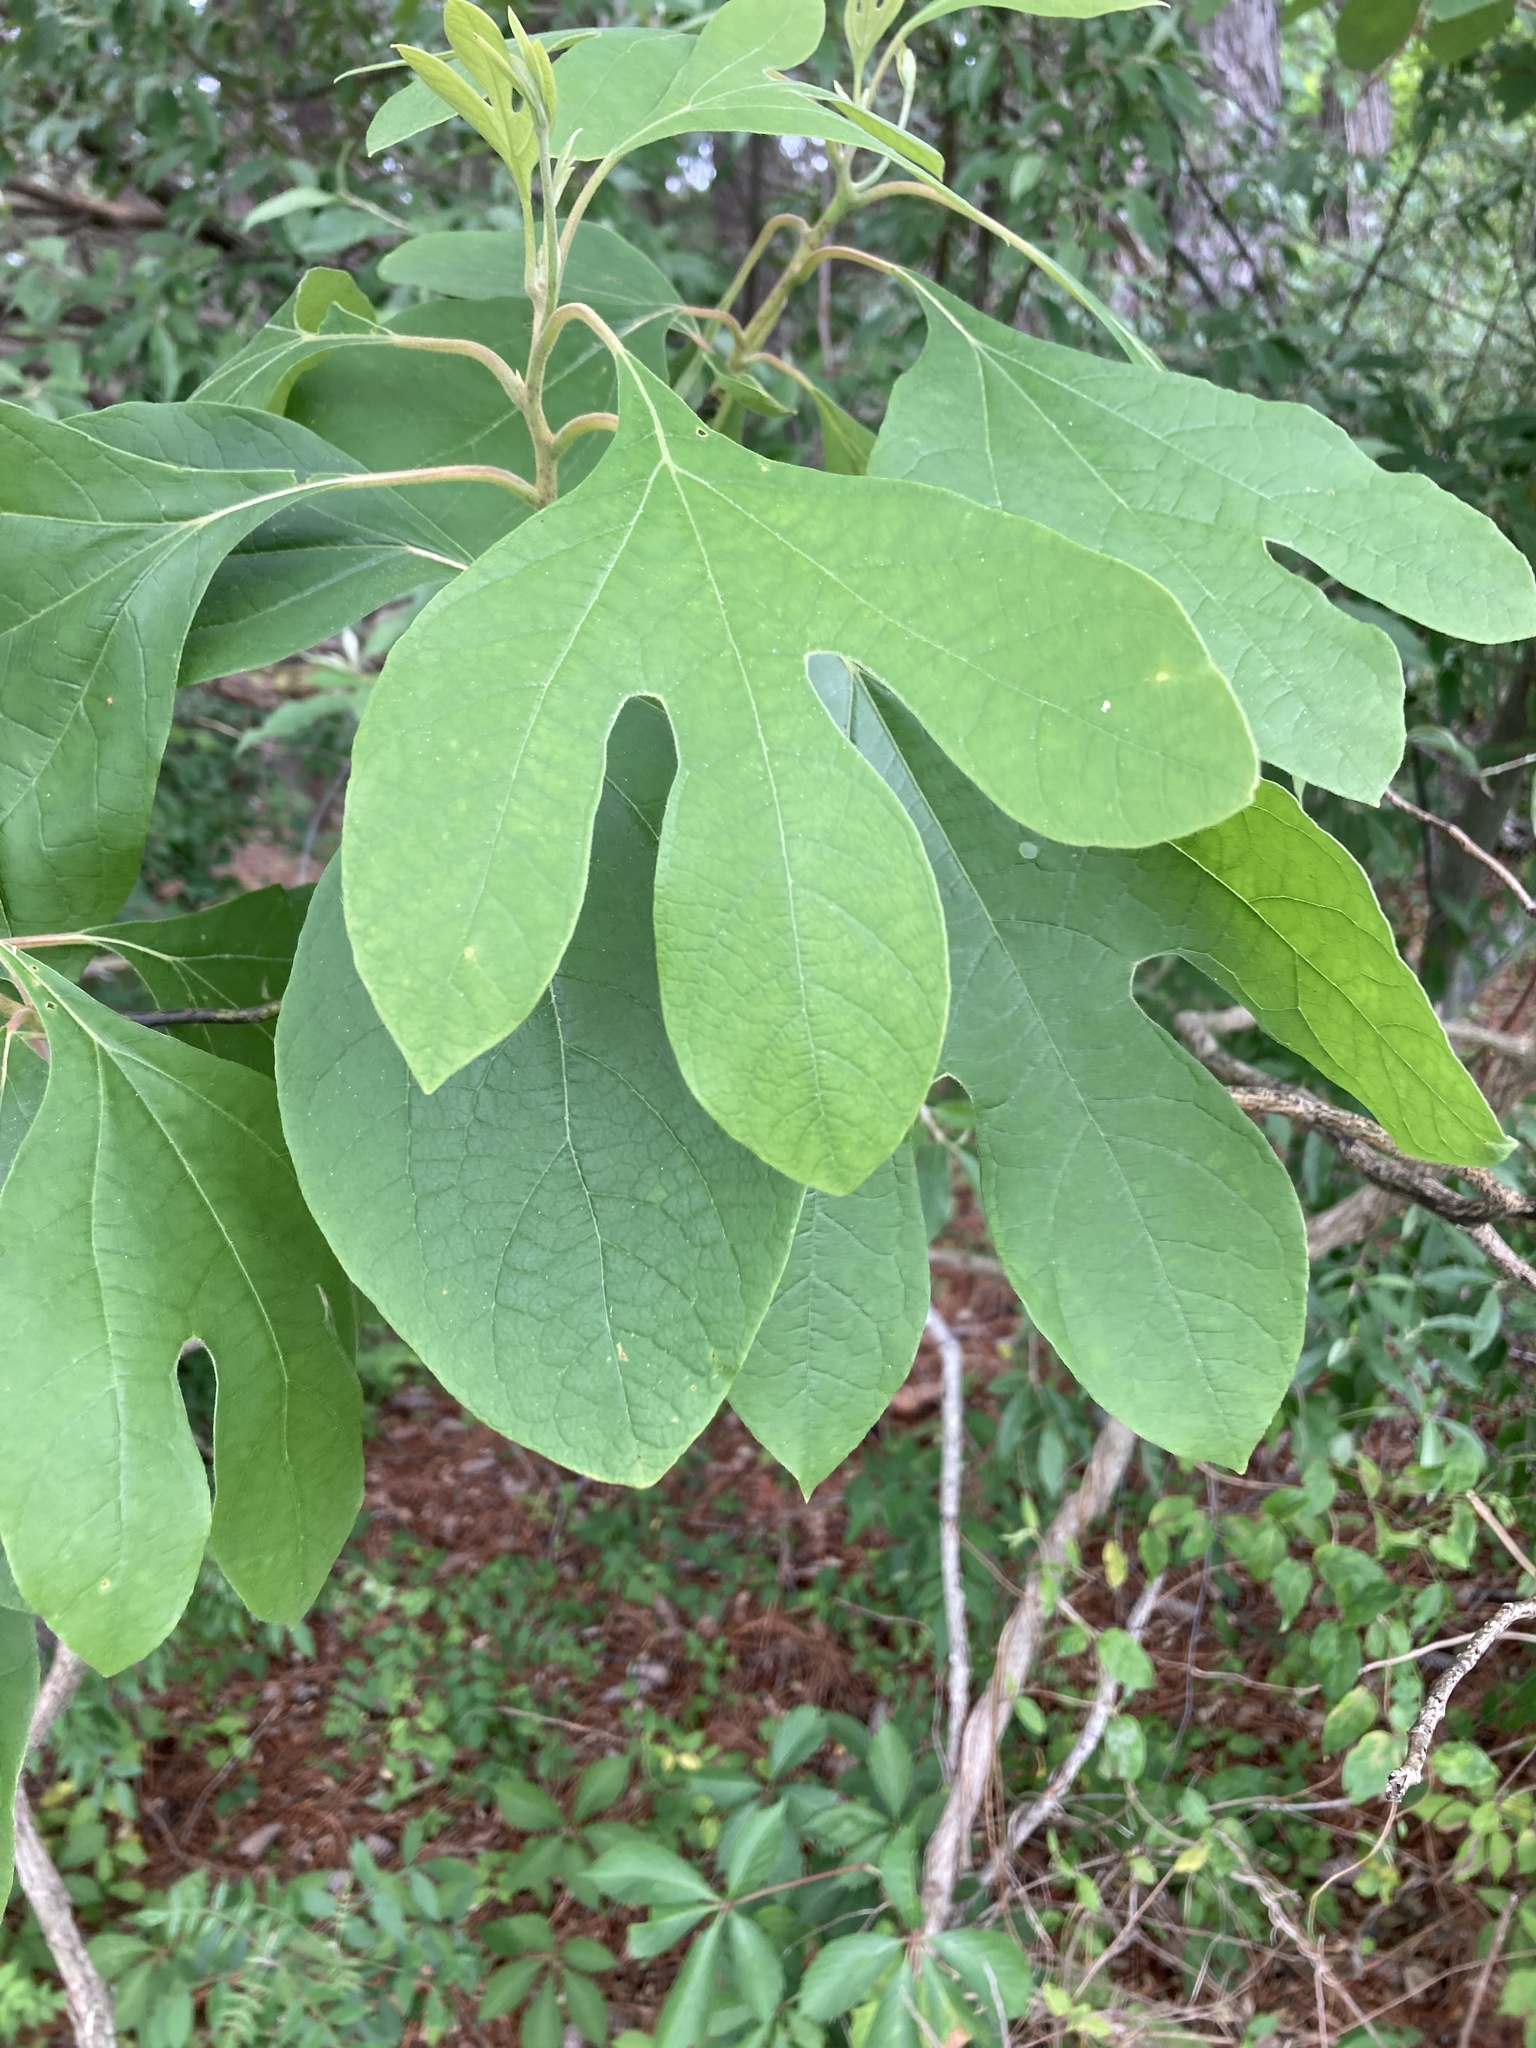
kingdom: Plantae
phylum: Tracheophyta
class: Magnoliopsida
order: Laurales
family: Lauraceae
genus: Sassafras
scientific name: Sassafras albidum
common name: Sassafras
